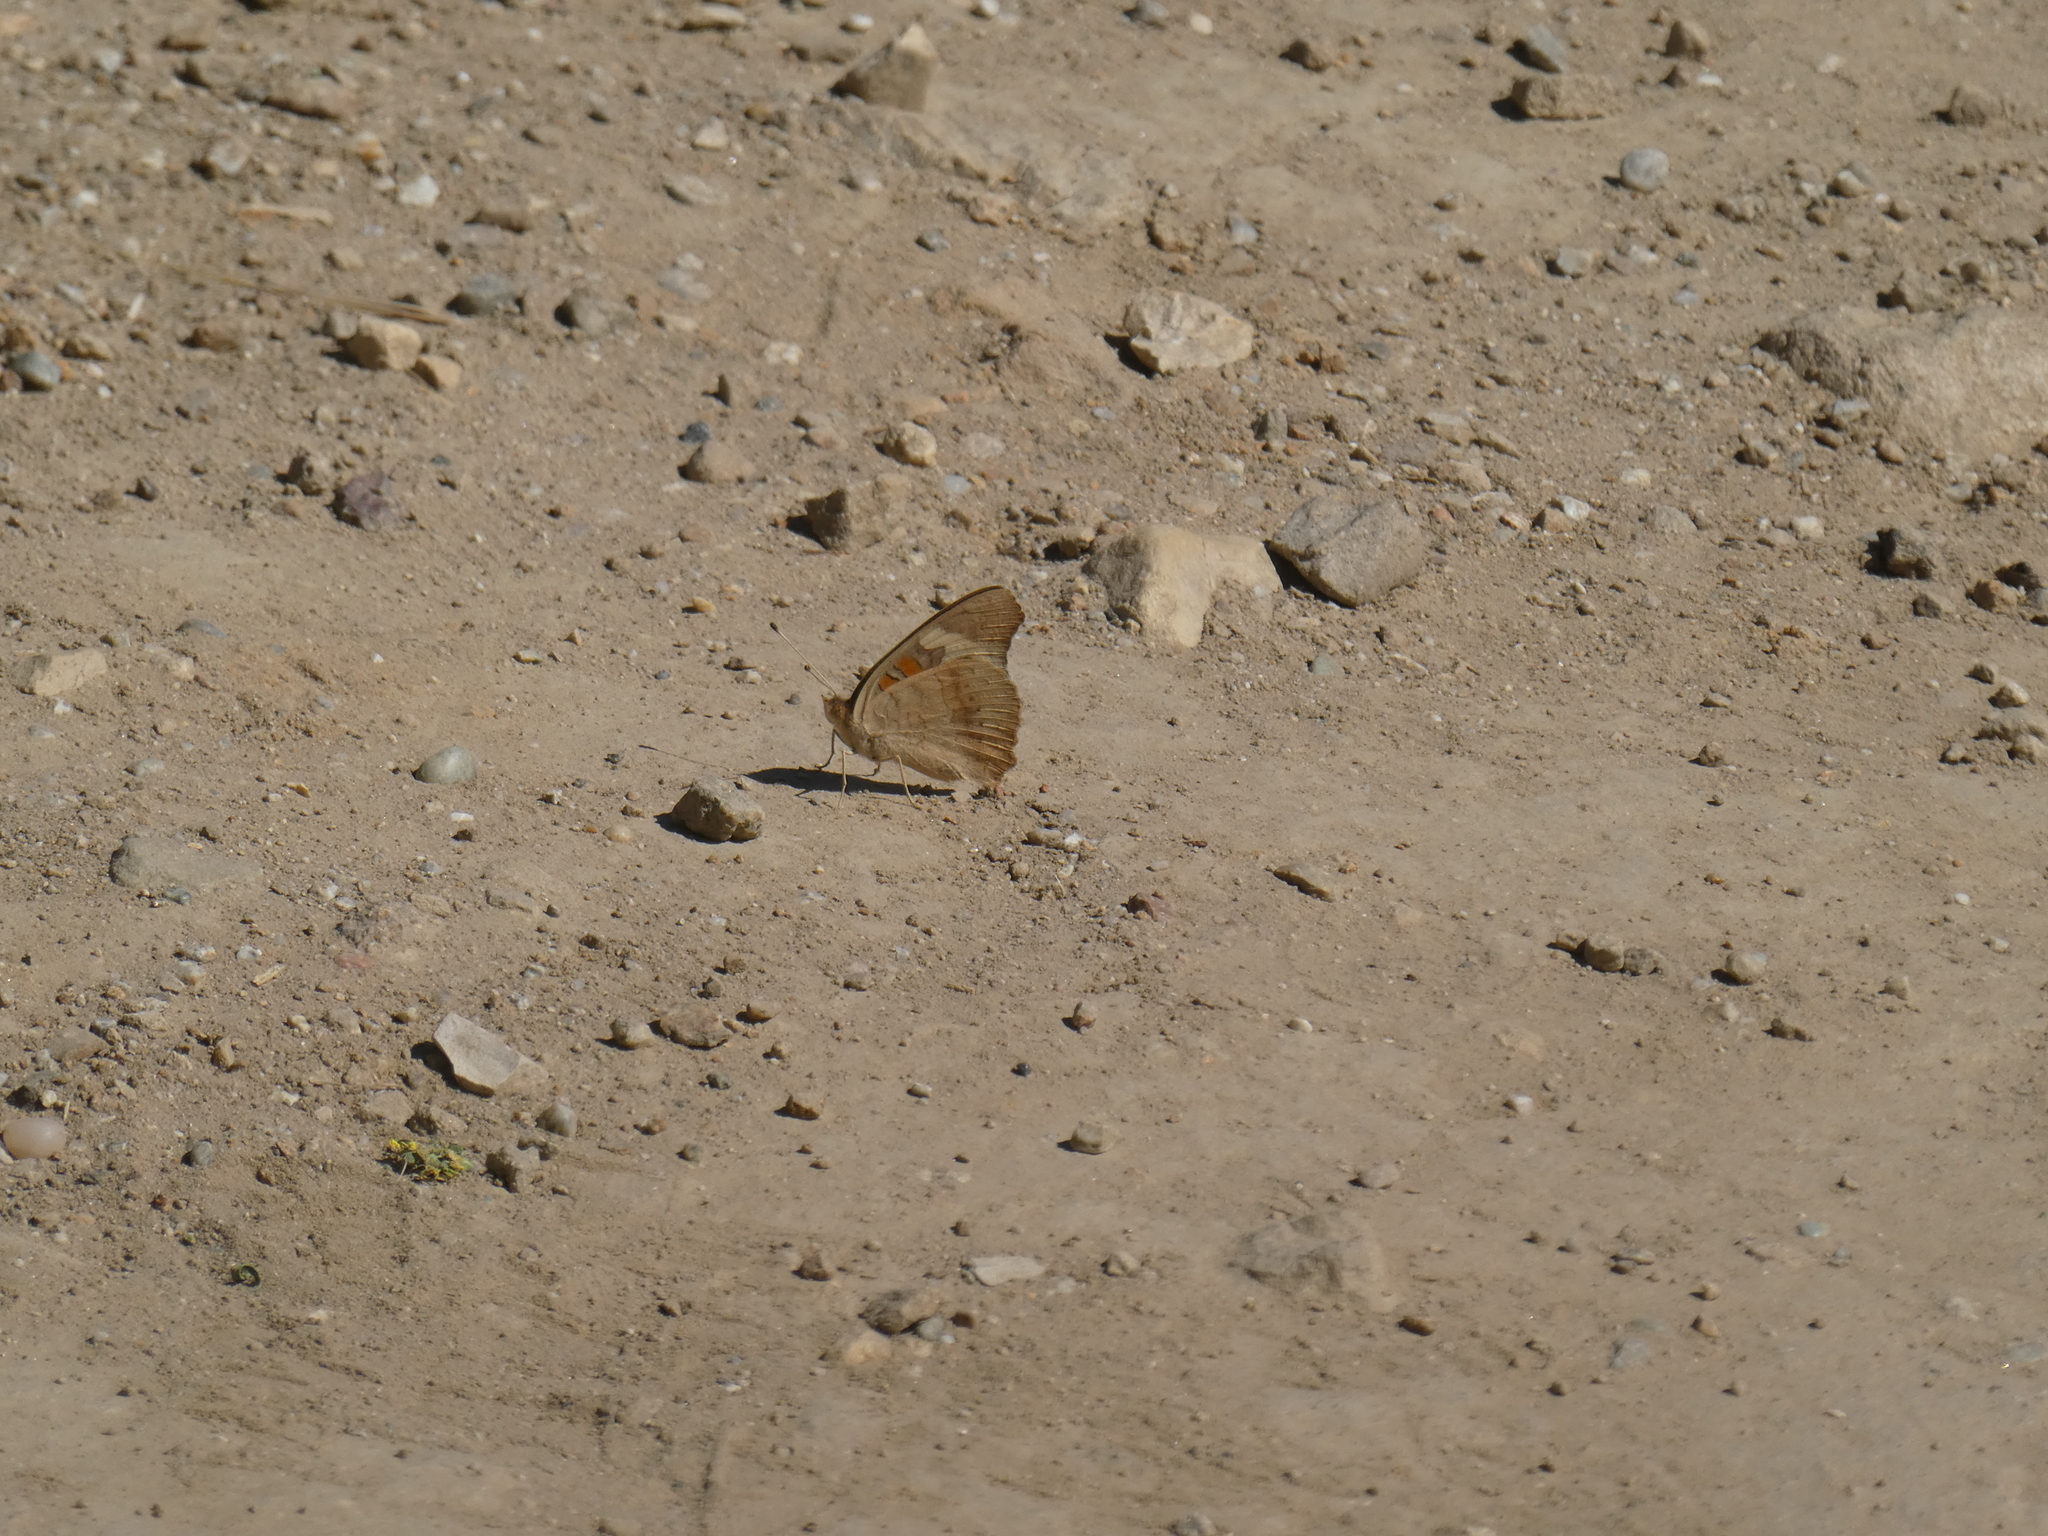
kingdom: Animalia
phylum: Arthropoda
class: Insecta
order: Lepidoptera
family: Nymphalidae
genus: Junonia
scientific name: Junonia grisea
